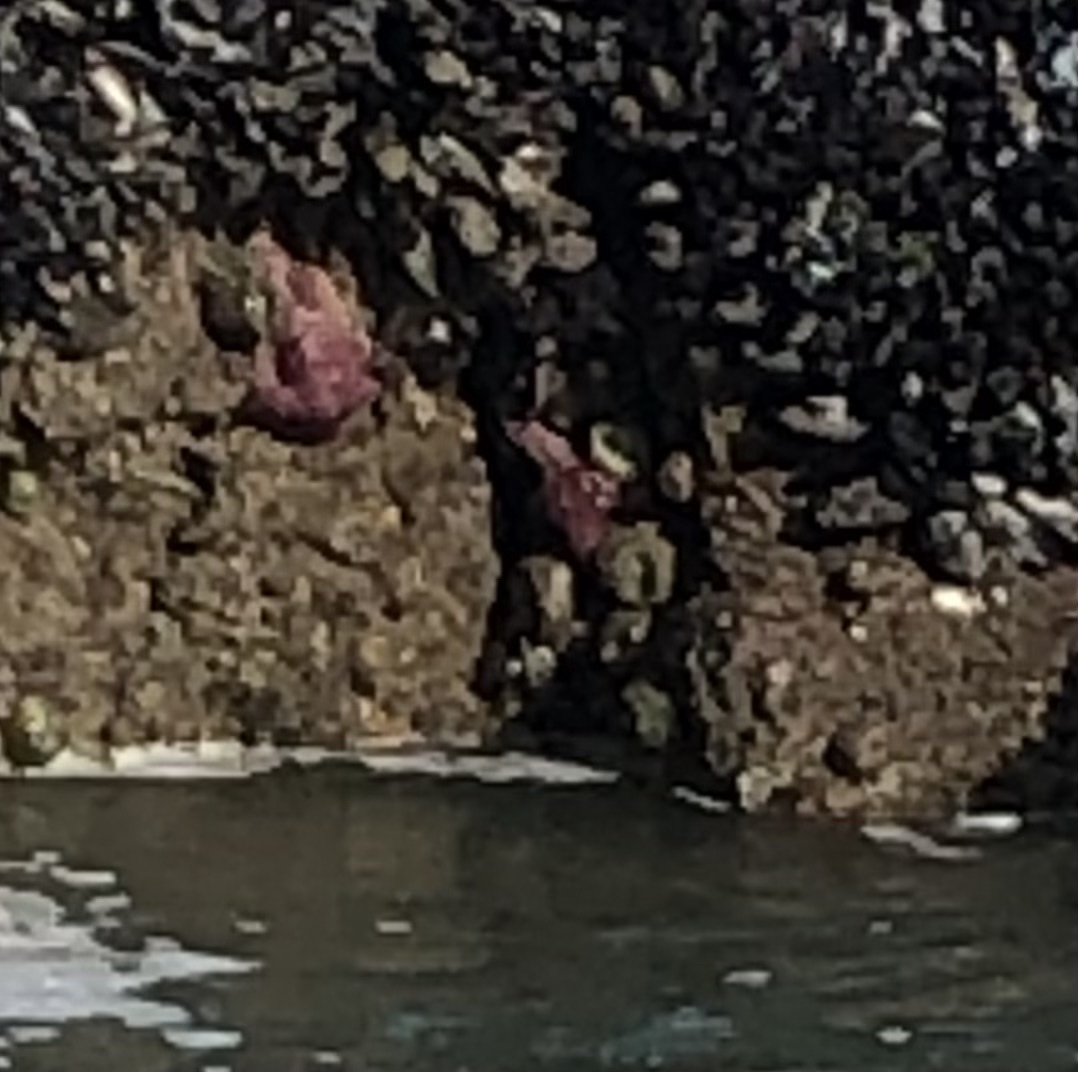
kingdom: Animalia
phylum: Echinodermata
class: Asteroidea
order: Forcipulatida
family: Asteriidae
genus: Pisaster
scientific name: Pisaster ochraceus
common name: Ochre stars
